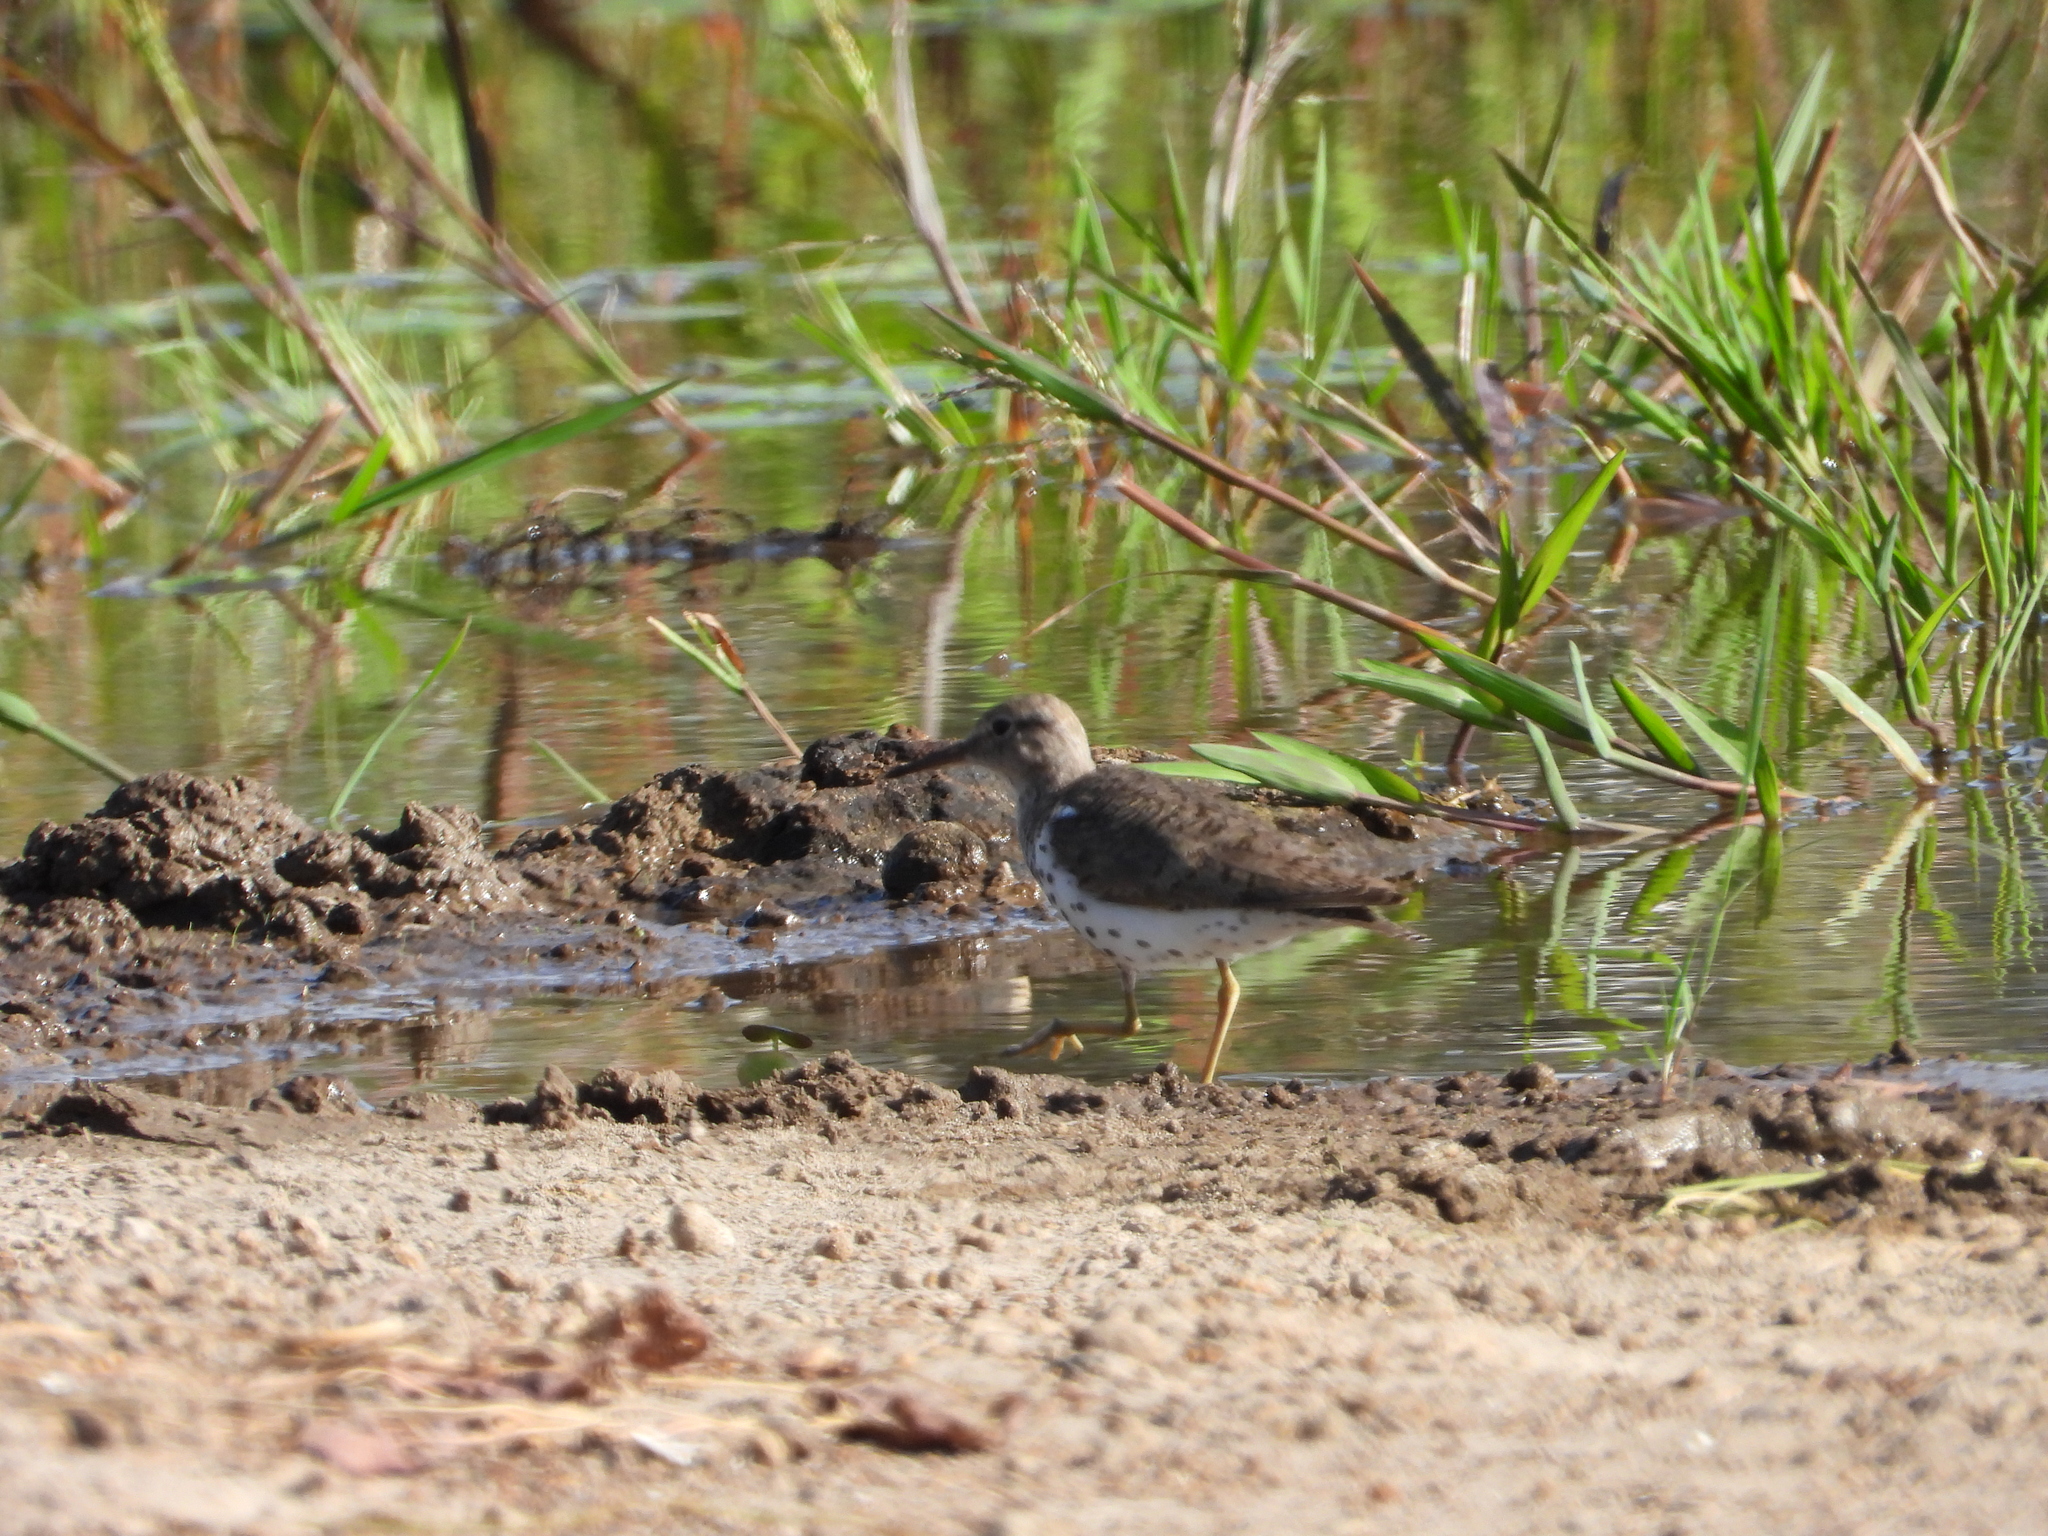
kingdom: Animalia
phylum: Chordata
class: Aves
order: Charadriiformes
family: Scolopacidae
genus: Actitis
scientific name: Actitis macularius
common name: Spotted sandpiper
